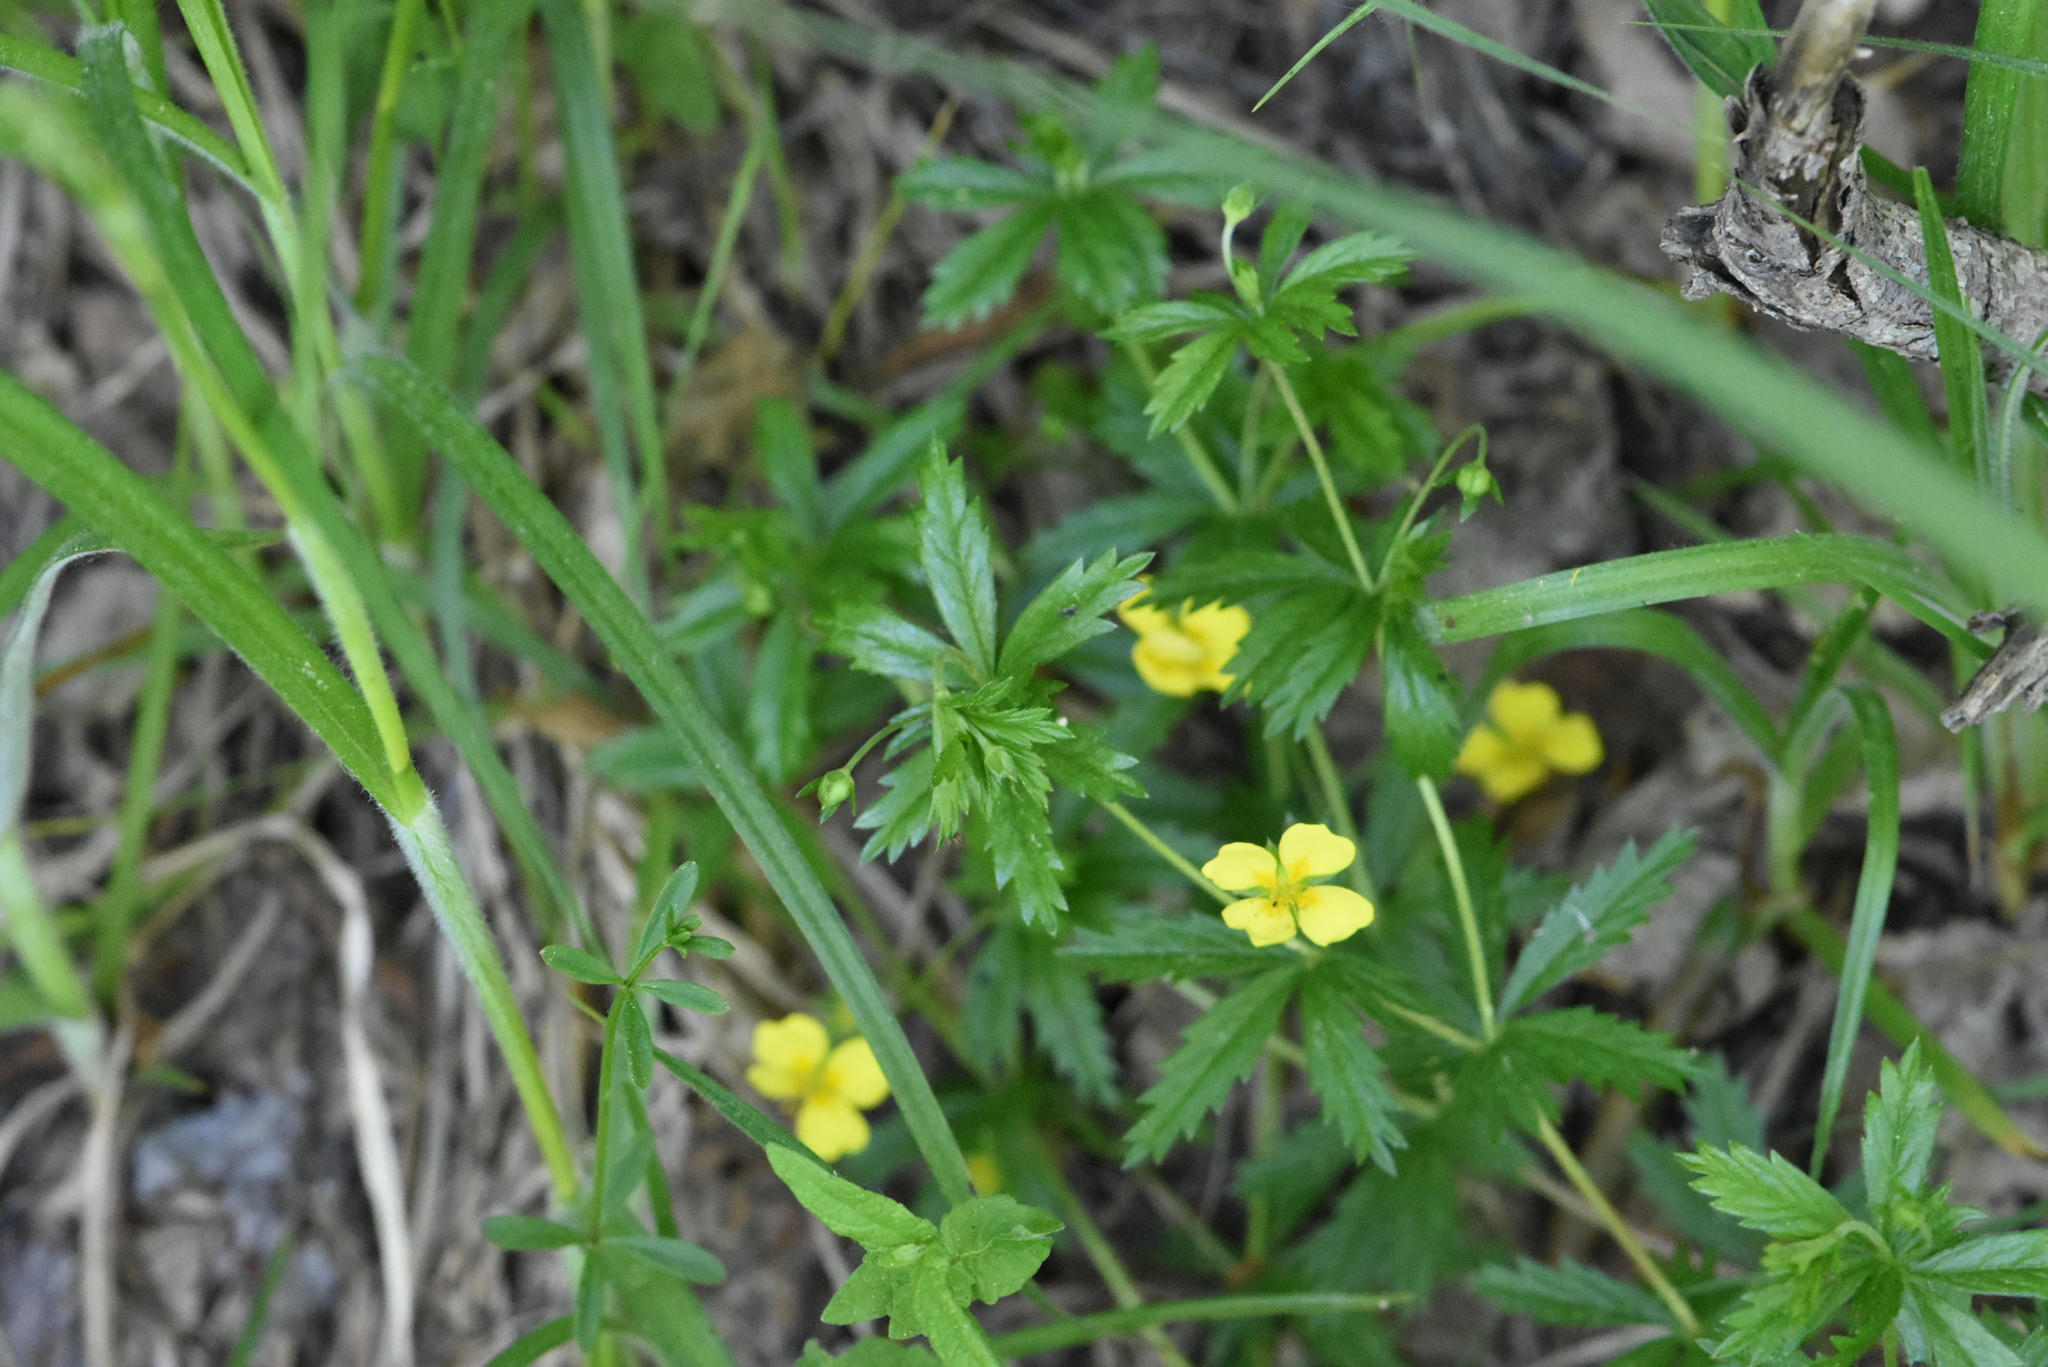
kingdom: Plantae
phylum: Tracheophyta
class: Magnoliopsida
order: Rosales
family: Rosaceae
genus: Potentilla
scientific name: Potentilla erecta
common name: Tormentil
